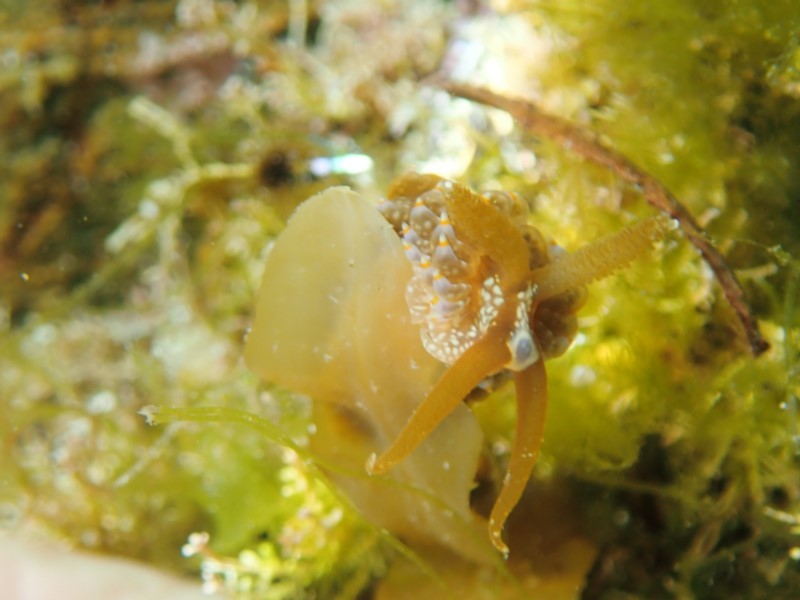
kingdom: Animalia
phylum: Mollusca
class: Gastropoda
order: Nudibranchia
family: Aeolidiidae
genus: Baeolidia
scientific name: Baeolidia australis
